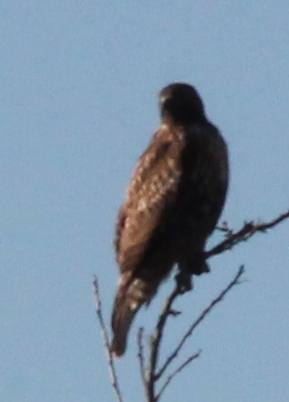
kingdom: Animalia
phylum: Chordata
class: Aves
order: Accipitriformes
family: Accipitridae
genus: Buteo
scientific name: Buteo jamaicensis
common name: Red-tailed hawk
